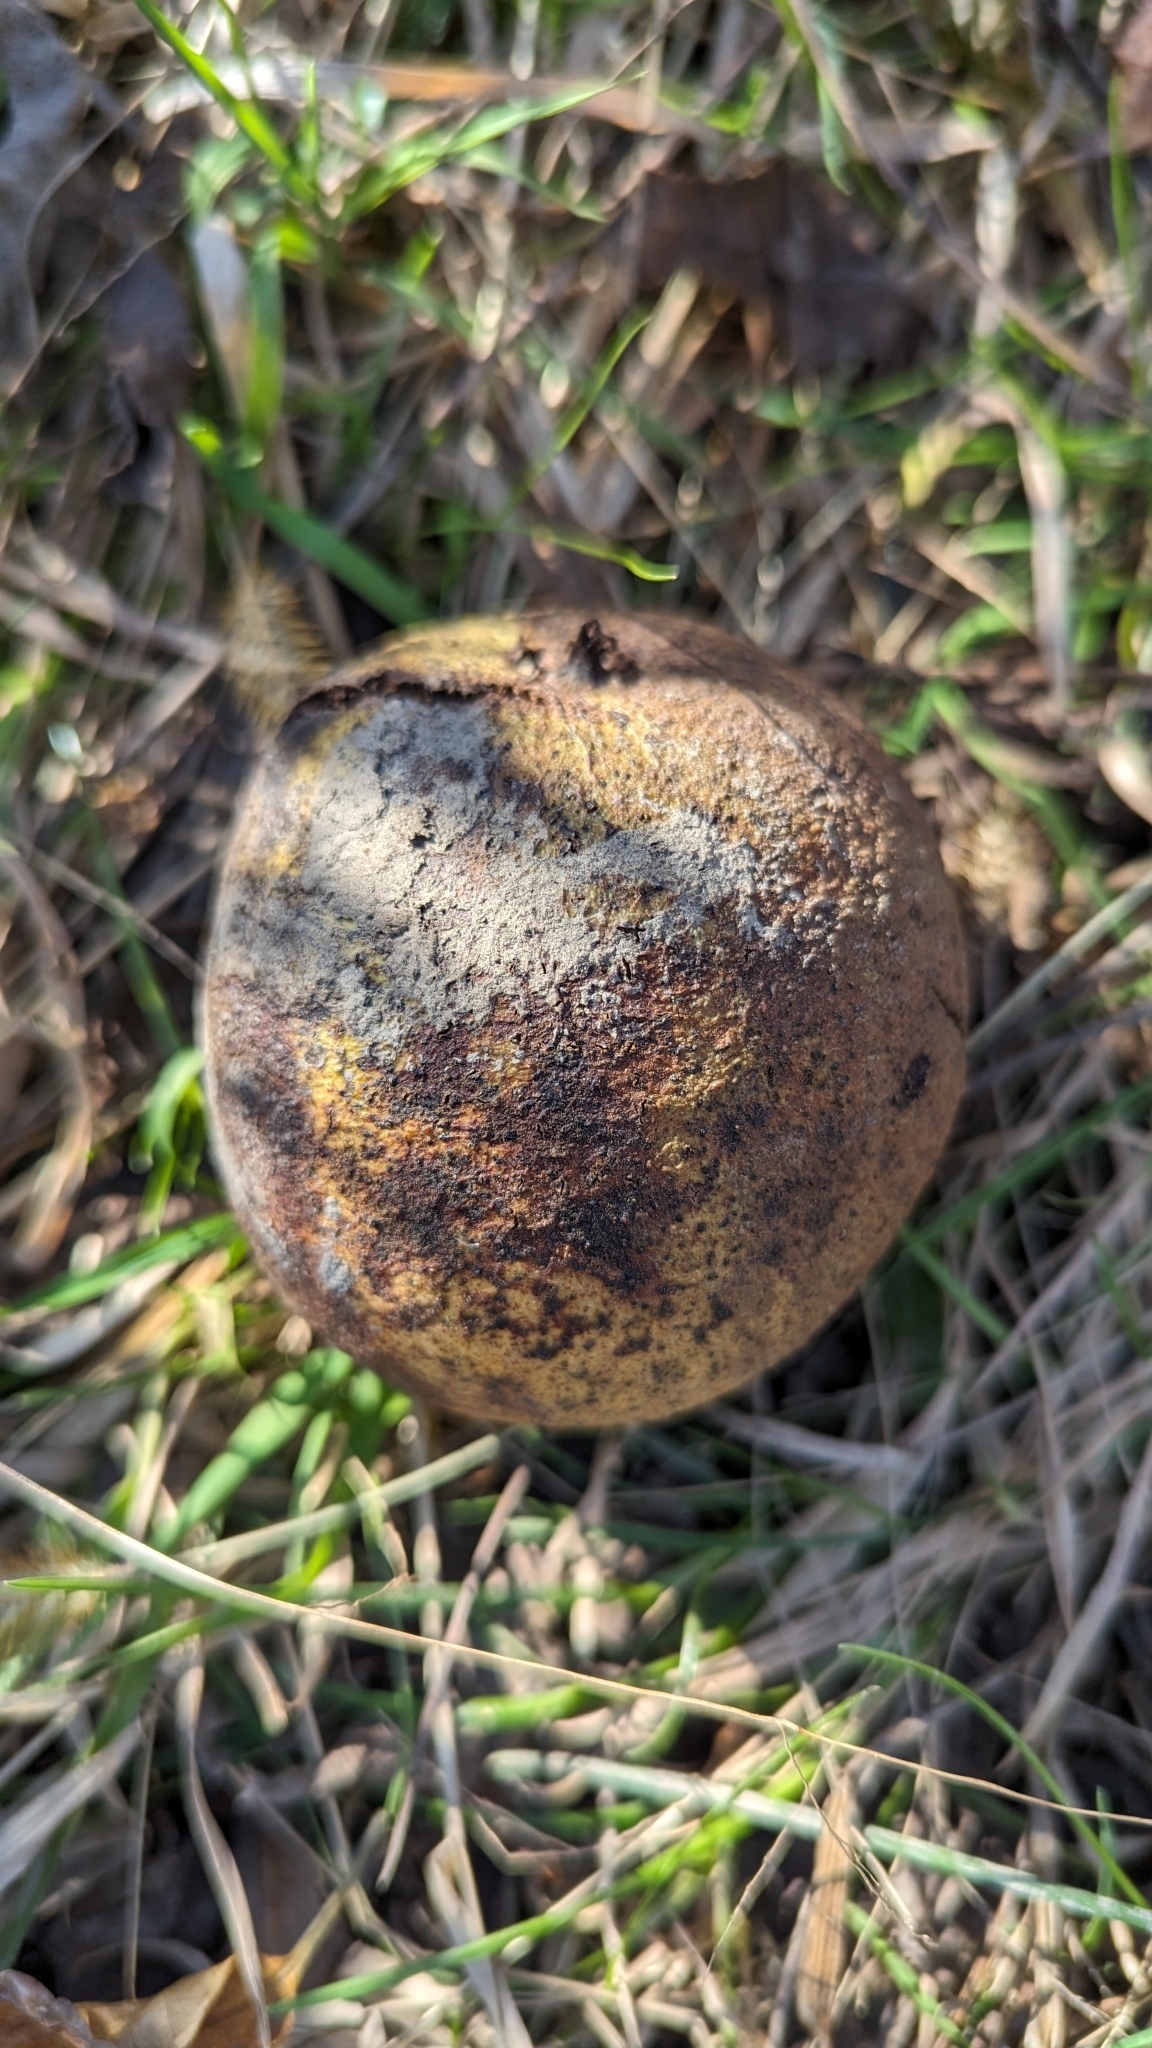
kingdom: Plantae
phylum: Tracheophyta
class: Magnoliopsida
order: Fagales
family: Juglandaceae
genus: Juglans
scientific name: Juglans nigra
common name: Black walnut
